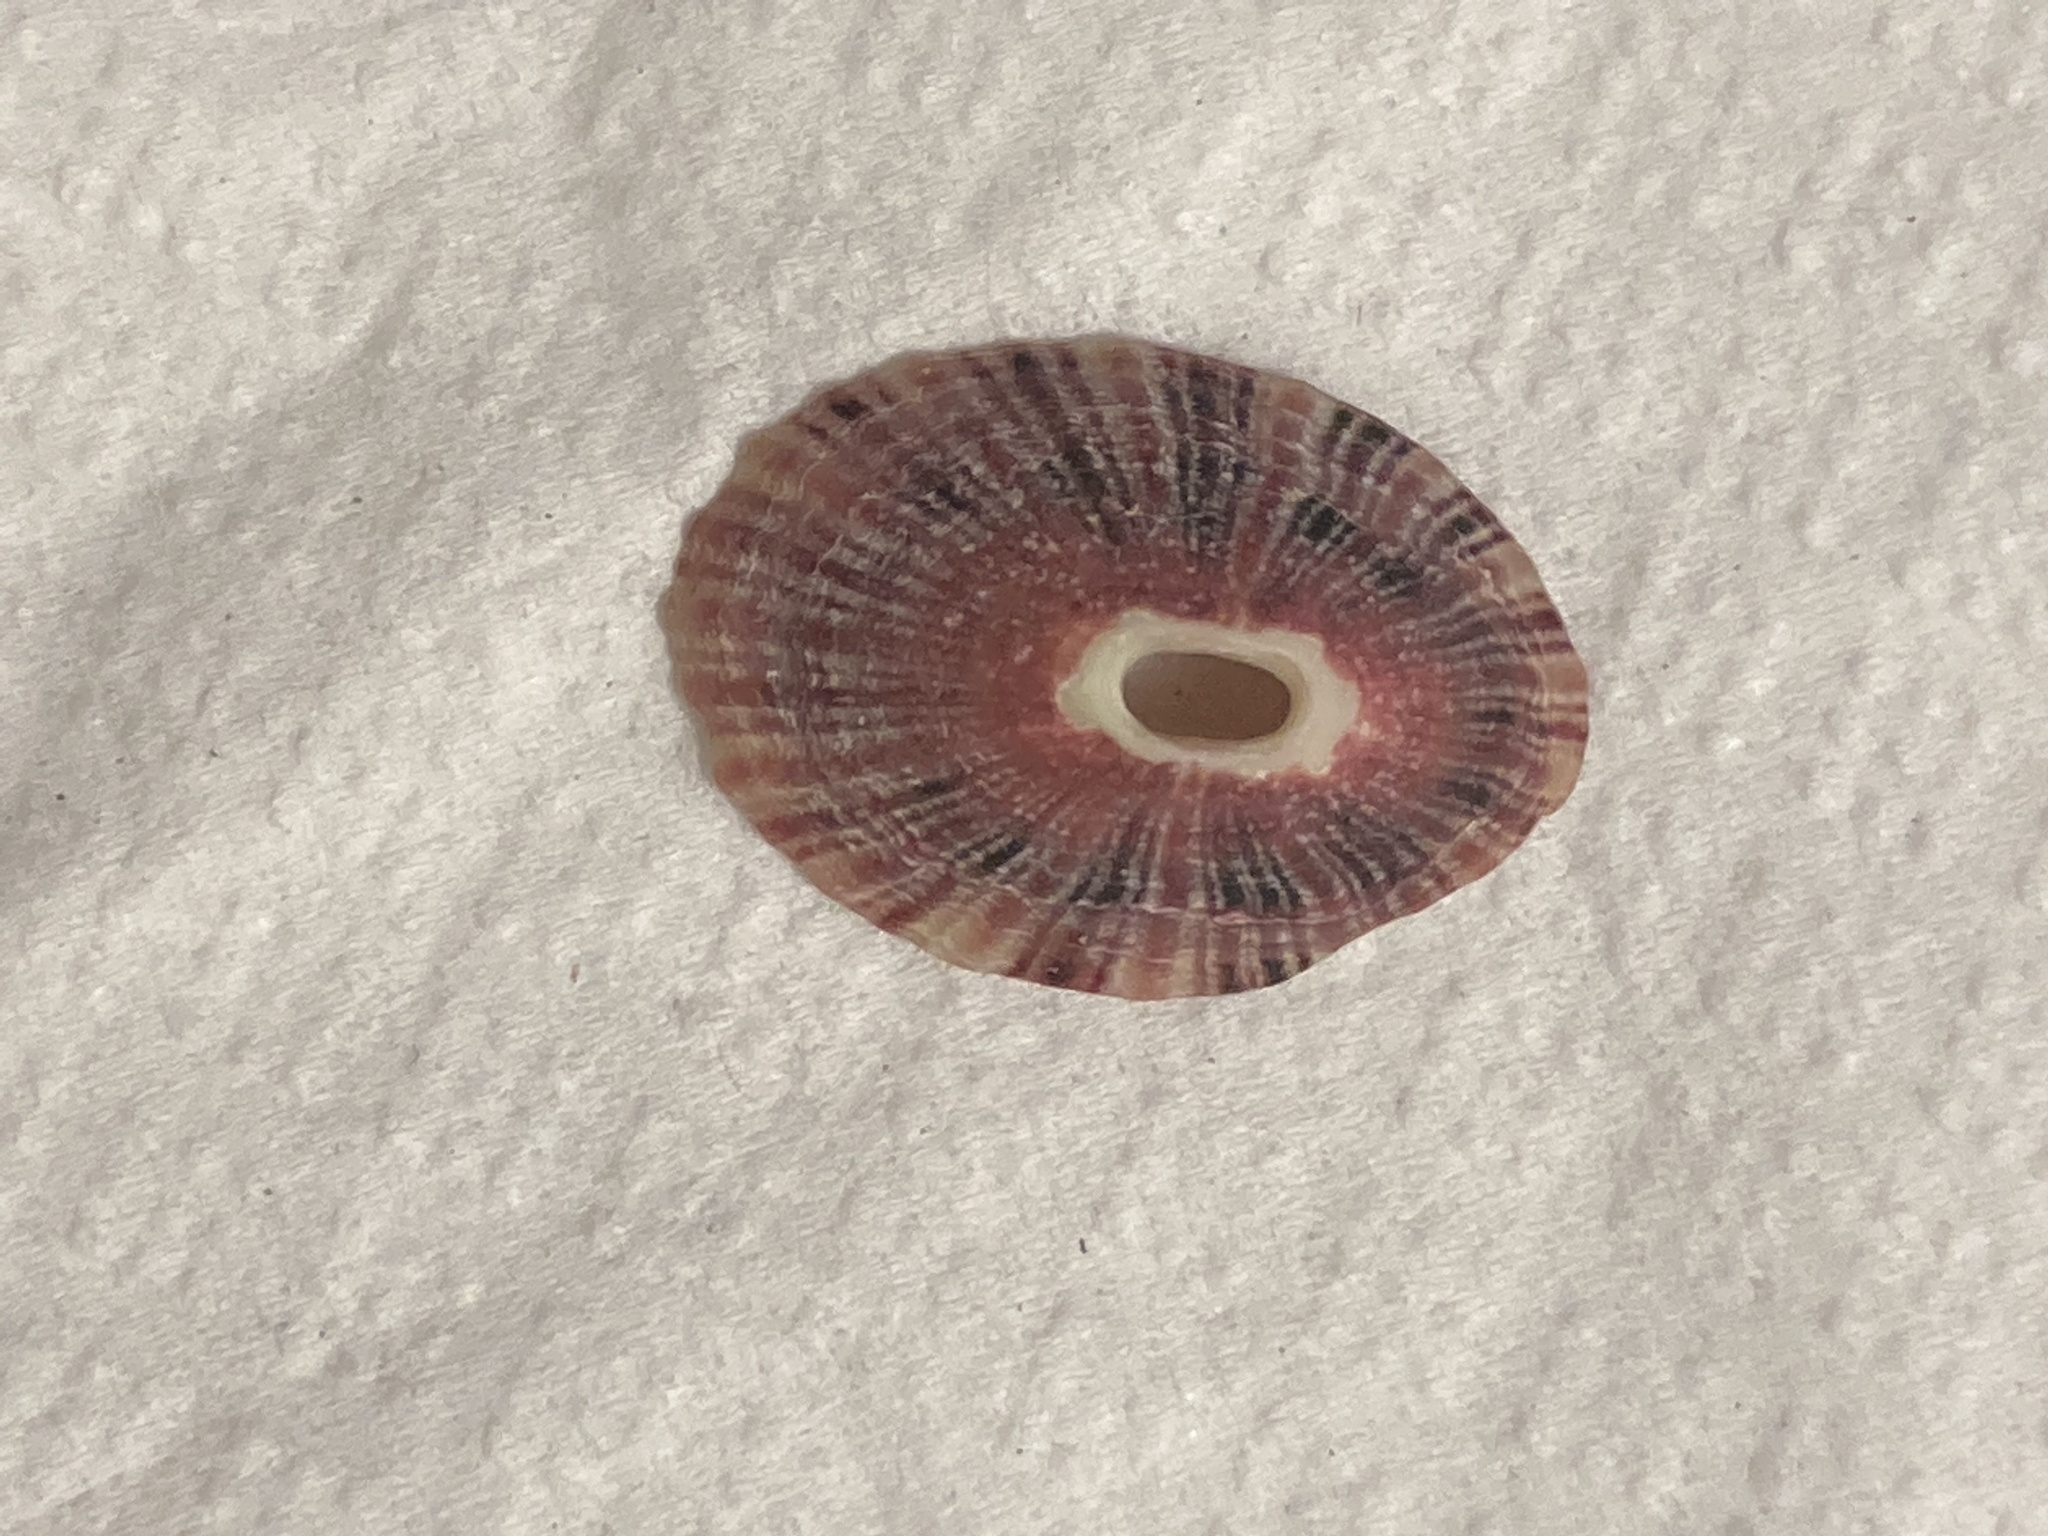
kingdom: Animalia
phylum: Mollusca
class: Gastropoda
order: Lepetellida
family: Fissurellidae
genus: Fissurella
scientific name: Fissurella volcano
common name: Volcano keyhole limpet
